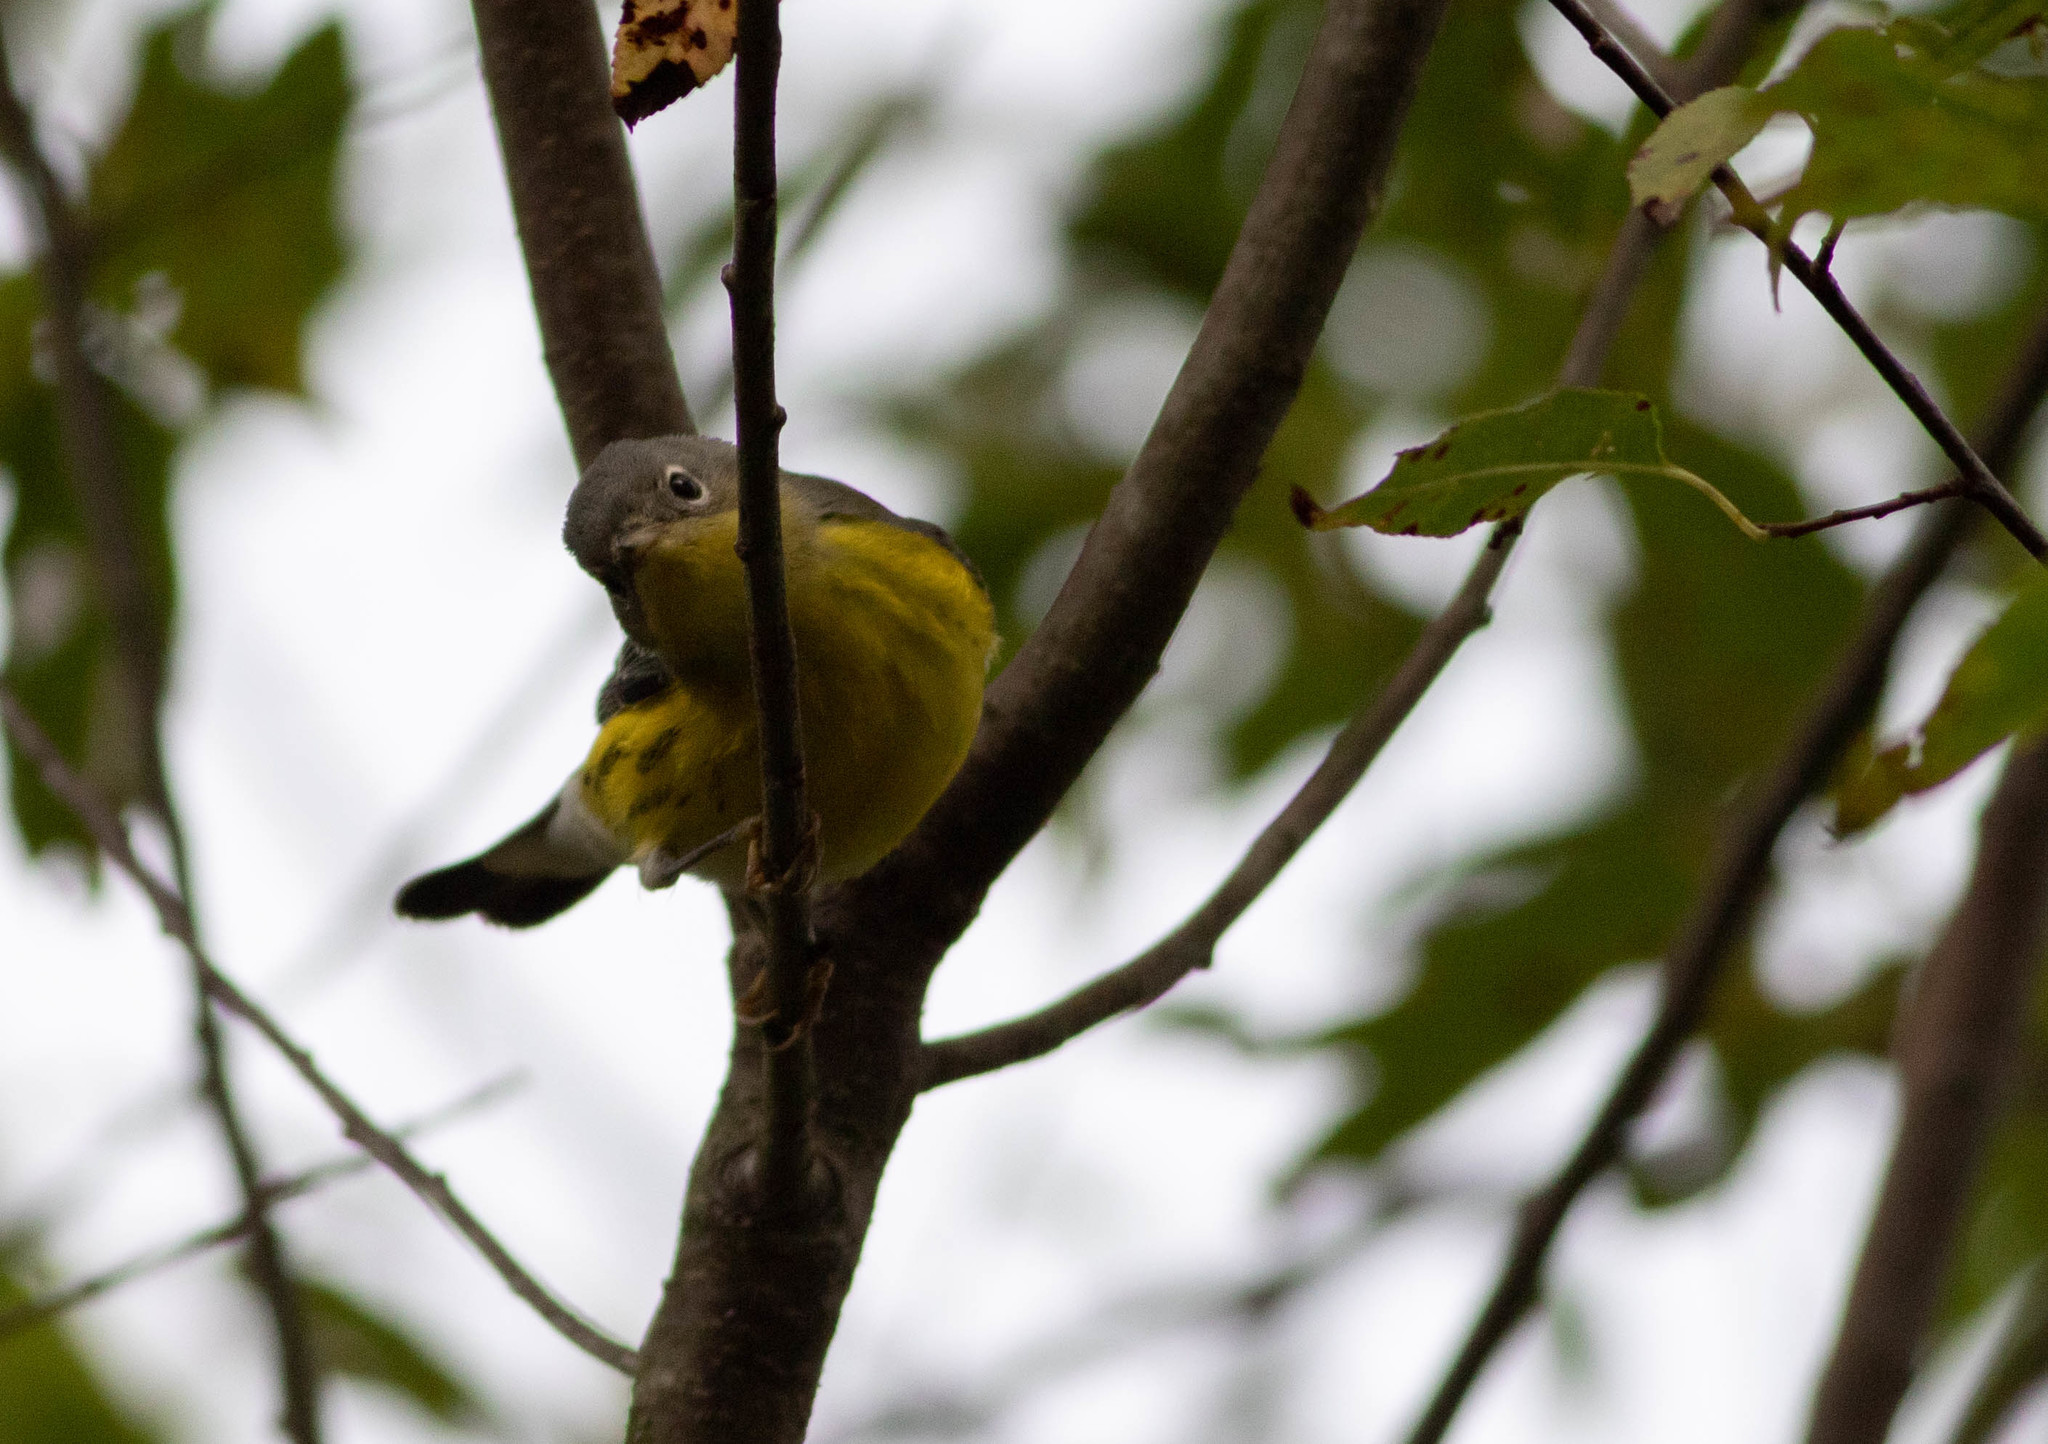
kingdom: Animalia
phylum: Chordata
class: Aves
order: Passeriformes
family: Parulidae
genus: Setophaga
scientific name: Setophaga magnolia
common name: Magnolia warbler
